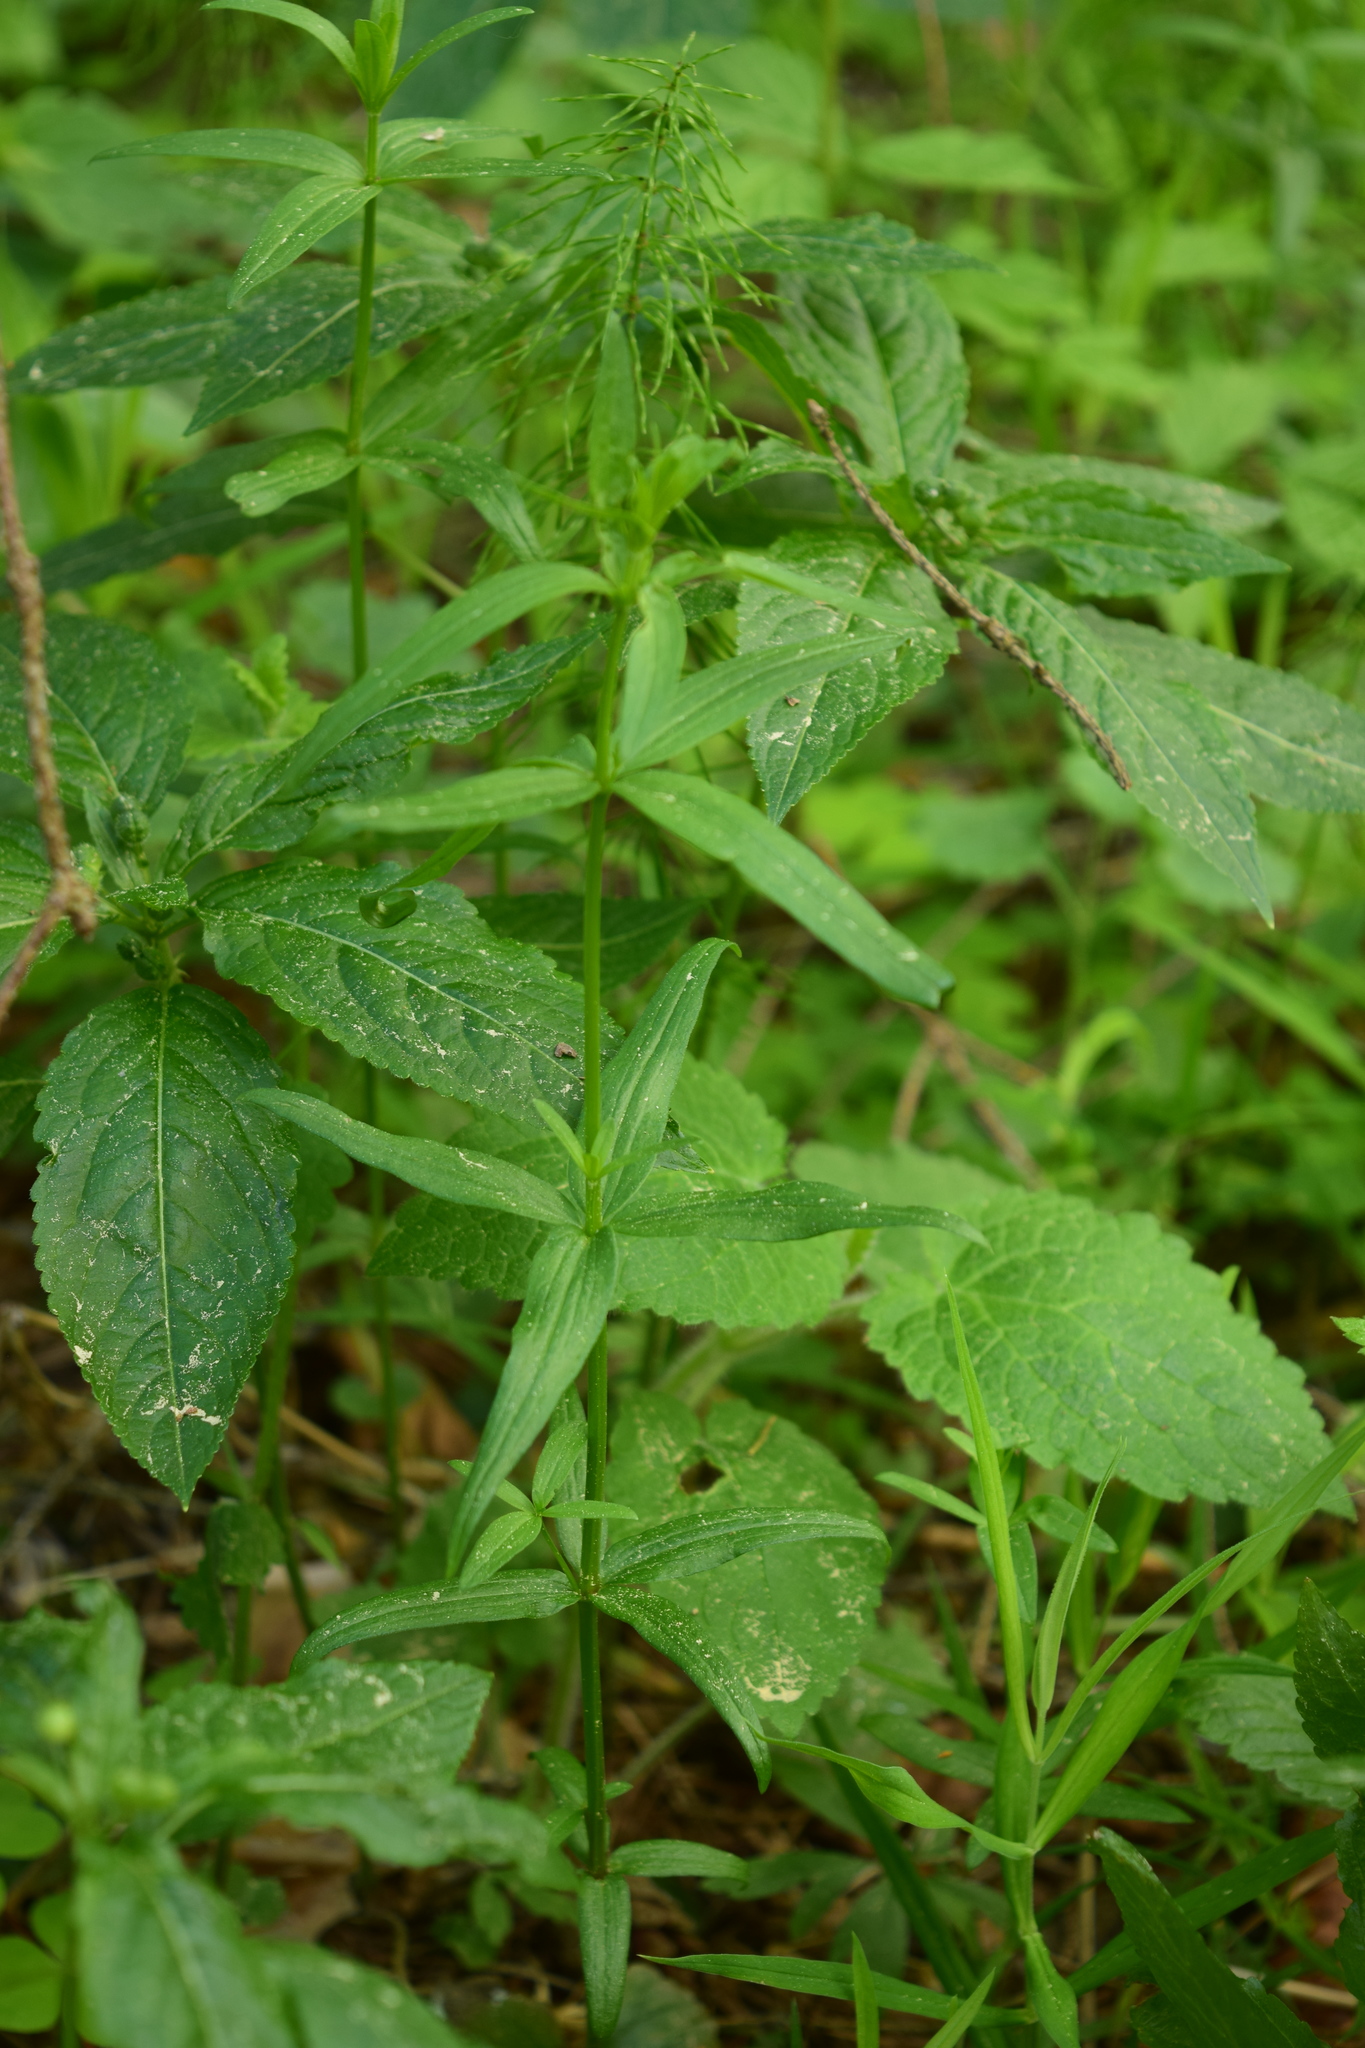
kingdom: Plantae
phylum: Tracheophyta
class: Magnoliopsida
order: Gentianales
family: Rubiaceae
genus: Galium
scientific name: Galium boreale
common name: Northern bedstraw
